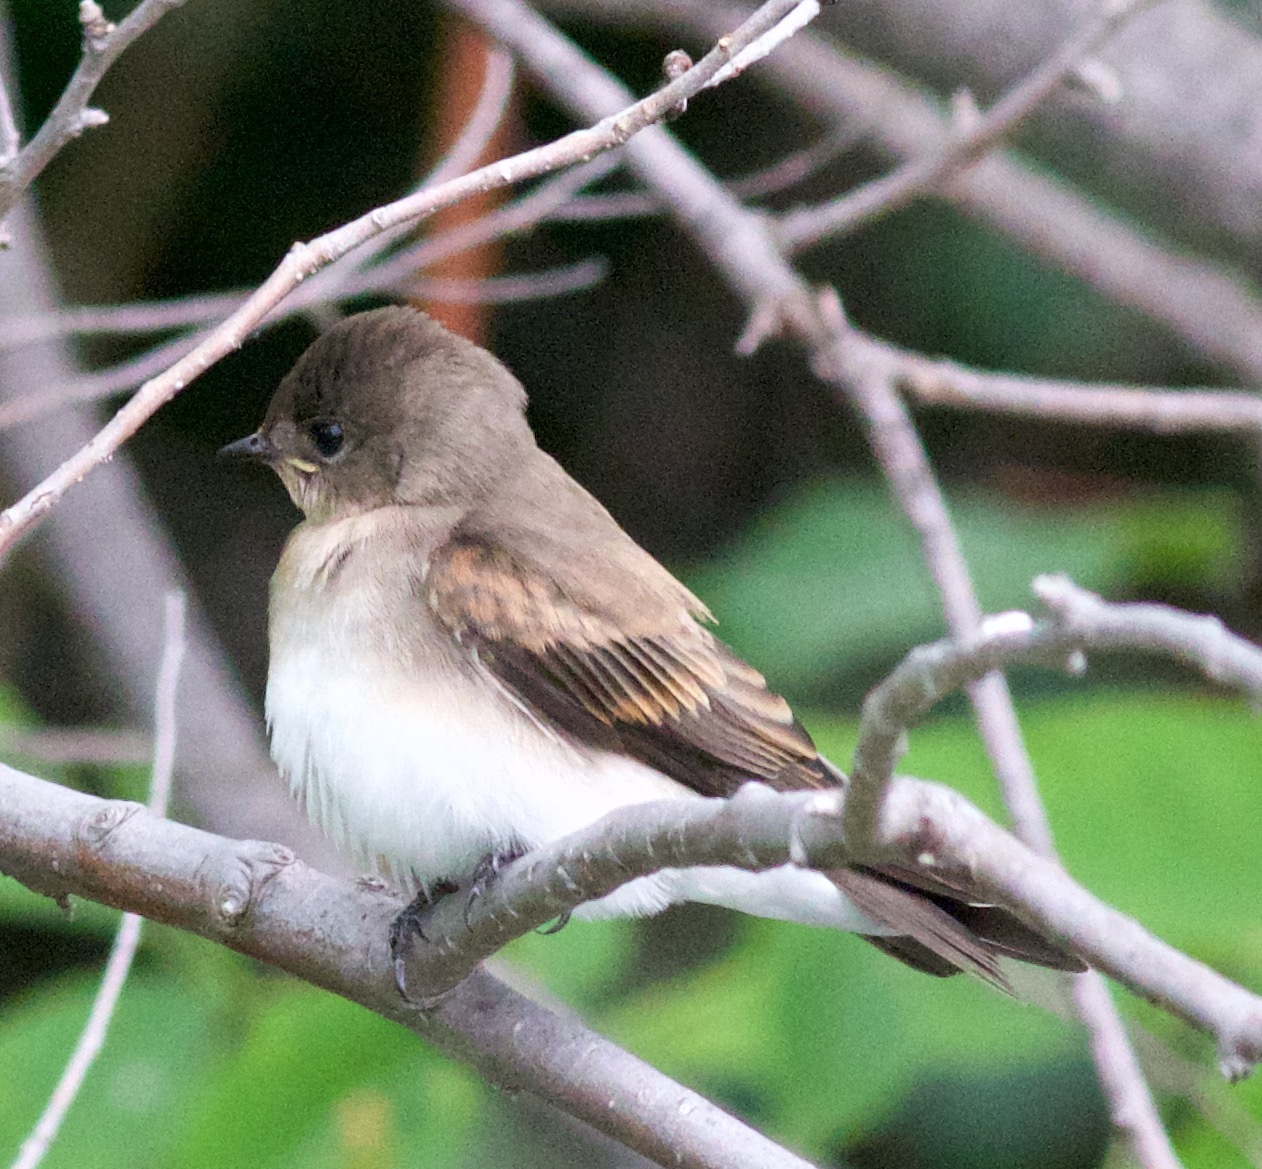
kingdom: Animalia
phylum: Chordata
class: Aves
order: Passeriformes
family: Hirundinidae
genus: Stelgidopteryx
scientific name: Stelgidopteryx serripennis
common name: Northern rough-winged swallow
